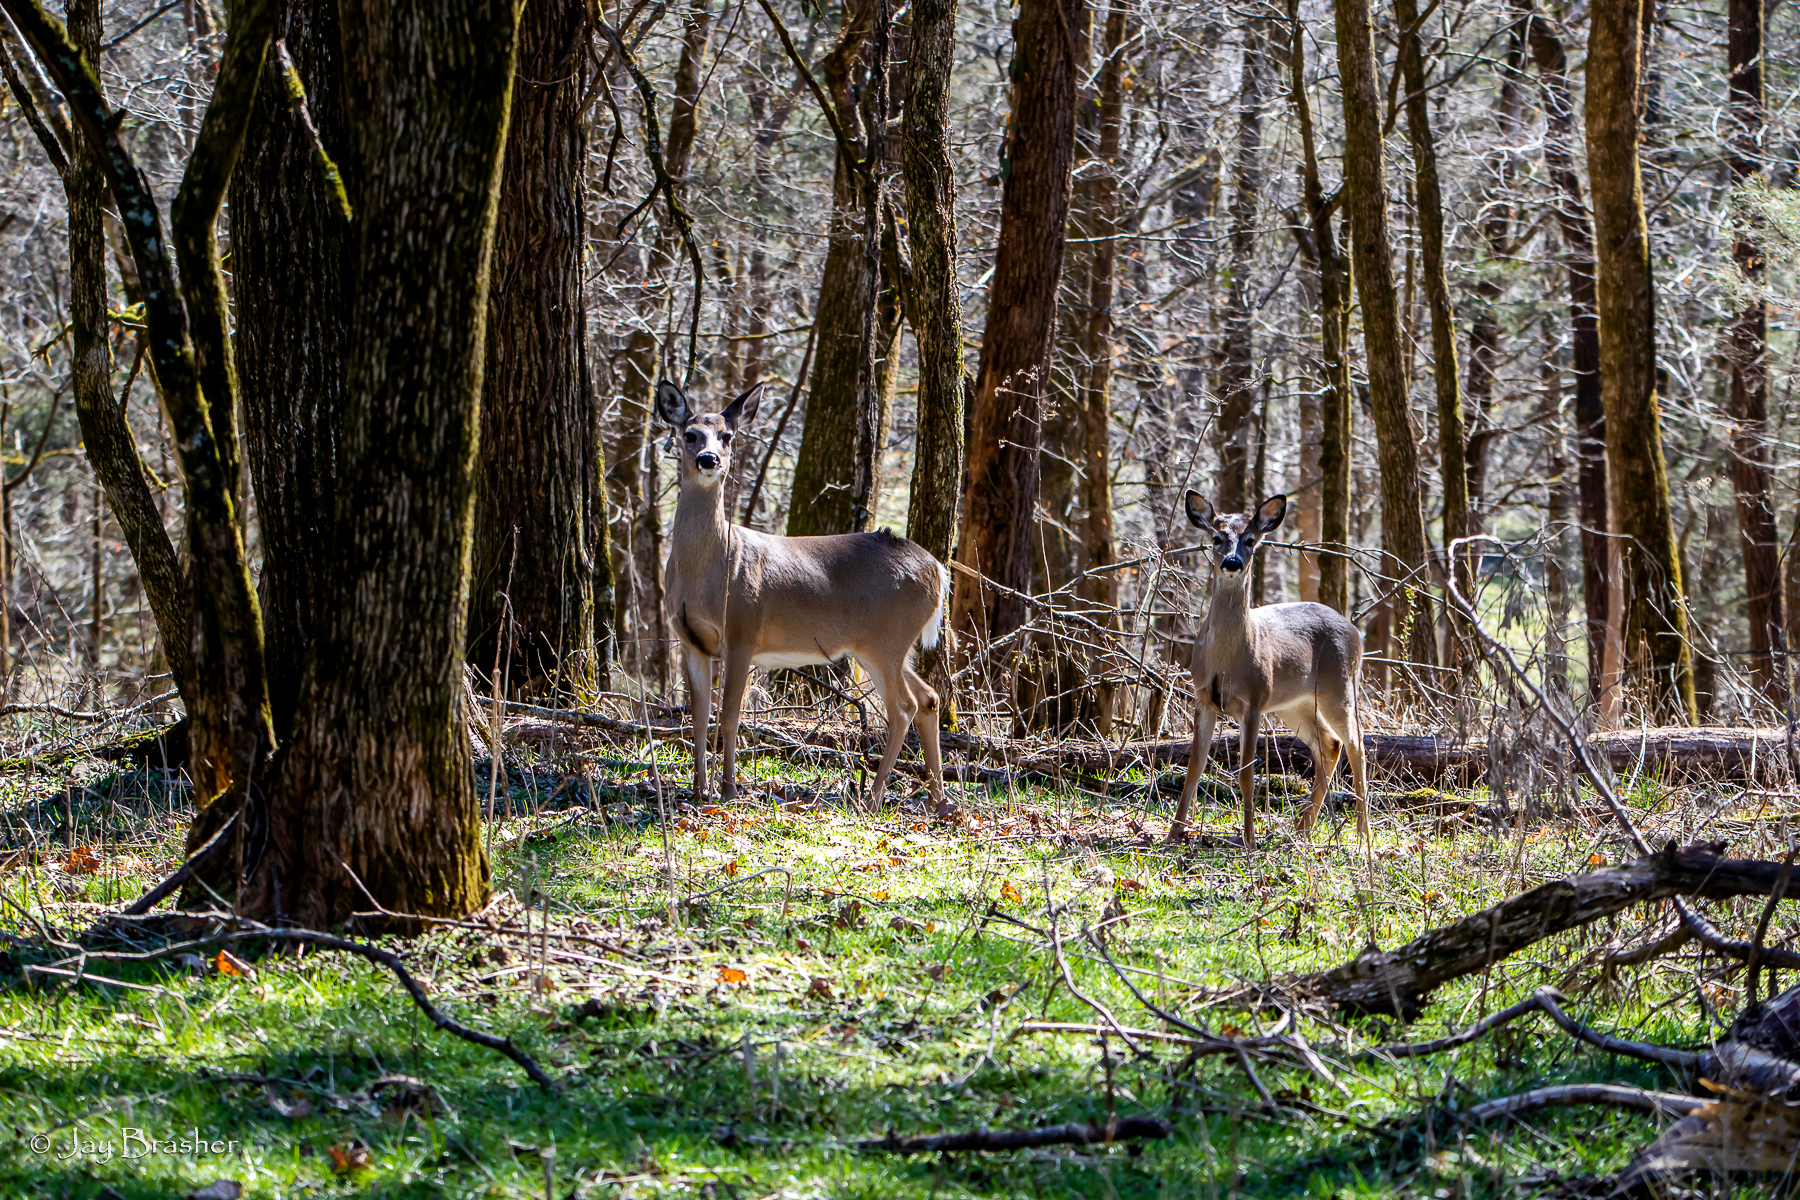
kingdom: Animalia
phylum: Chordata
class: Mammalia
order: Artiodactyla
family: Cervidae
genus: Odocoileus
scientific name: Odocoileus virginianus
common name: White-tailed deer
